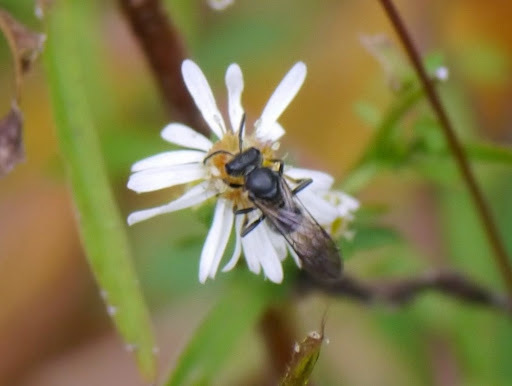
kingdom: Animalia
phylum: Arthropoda
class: Insecta
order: Hymenoptera
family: Halictidae
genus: Lasioglossum
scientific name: Lasioglossum fuscipenne
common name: Brown-winged sweat bee
